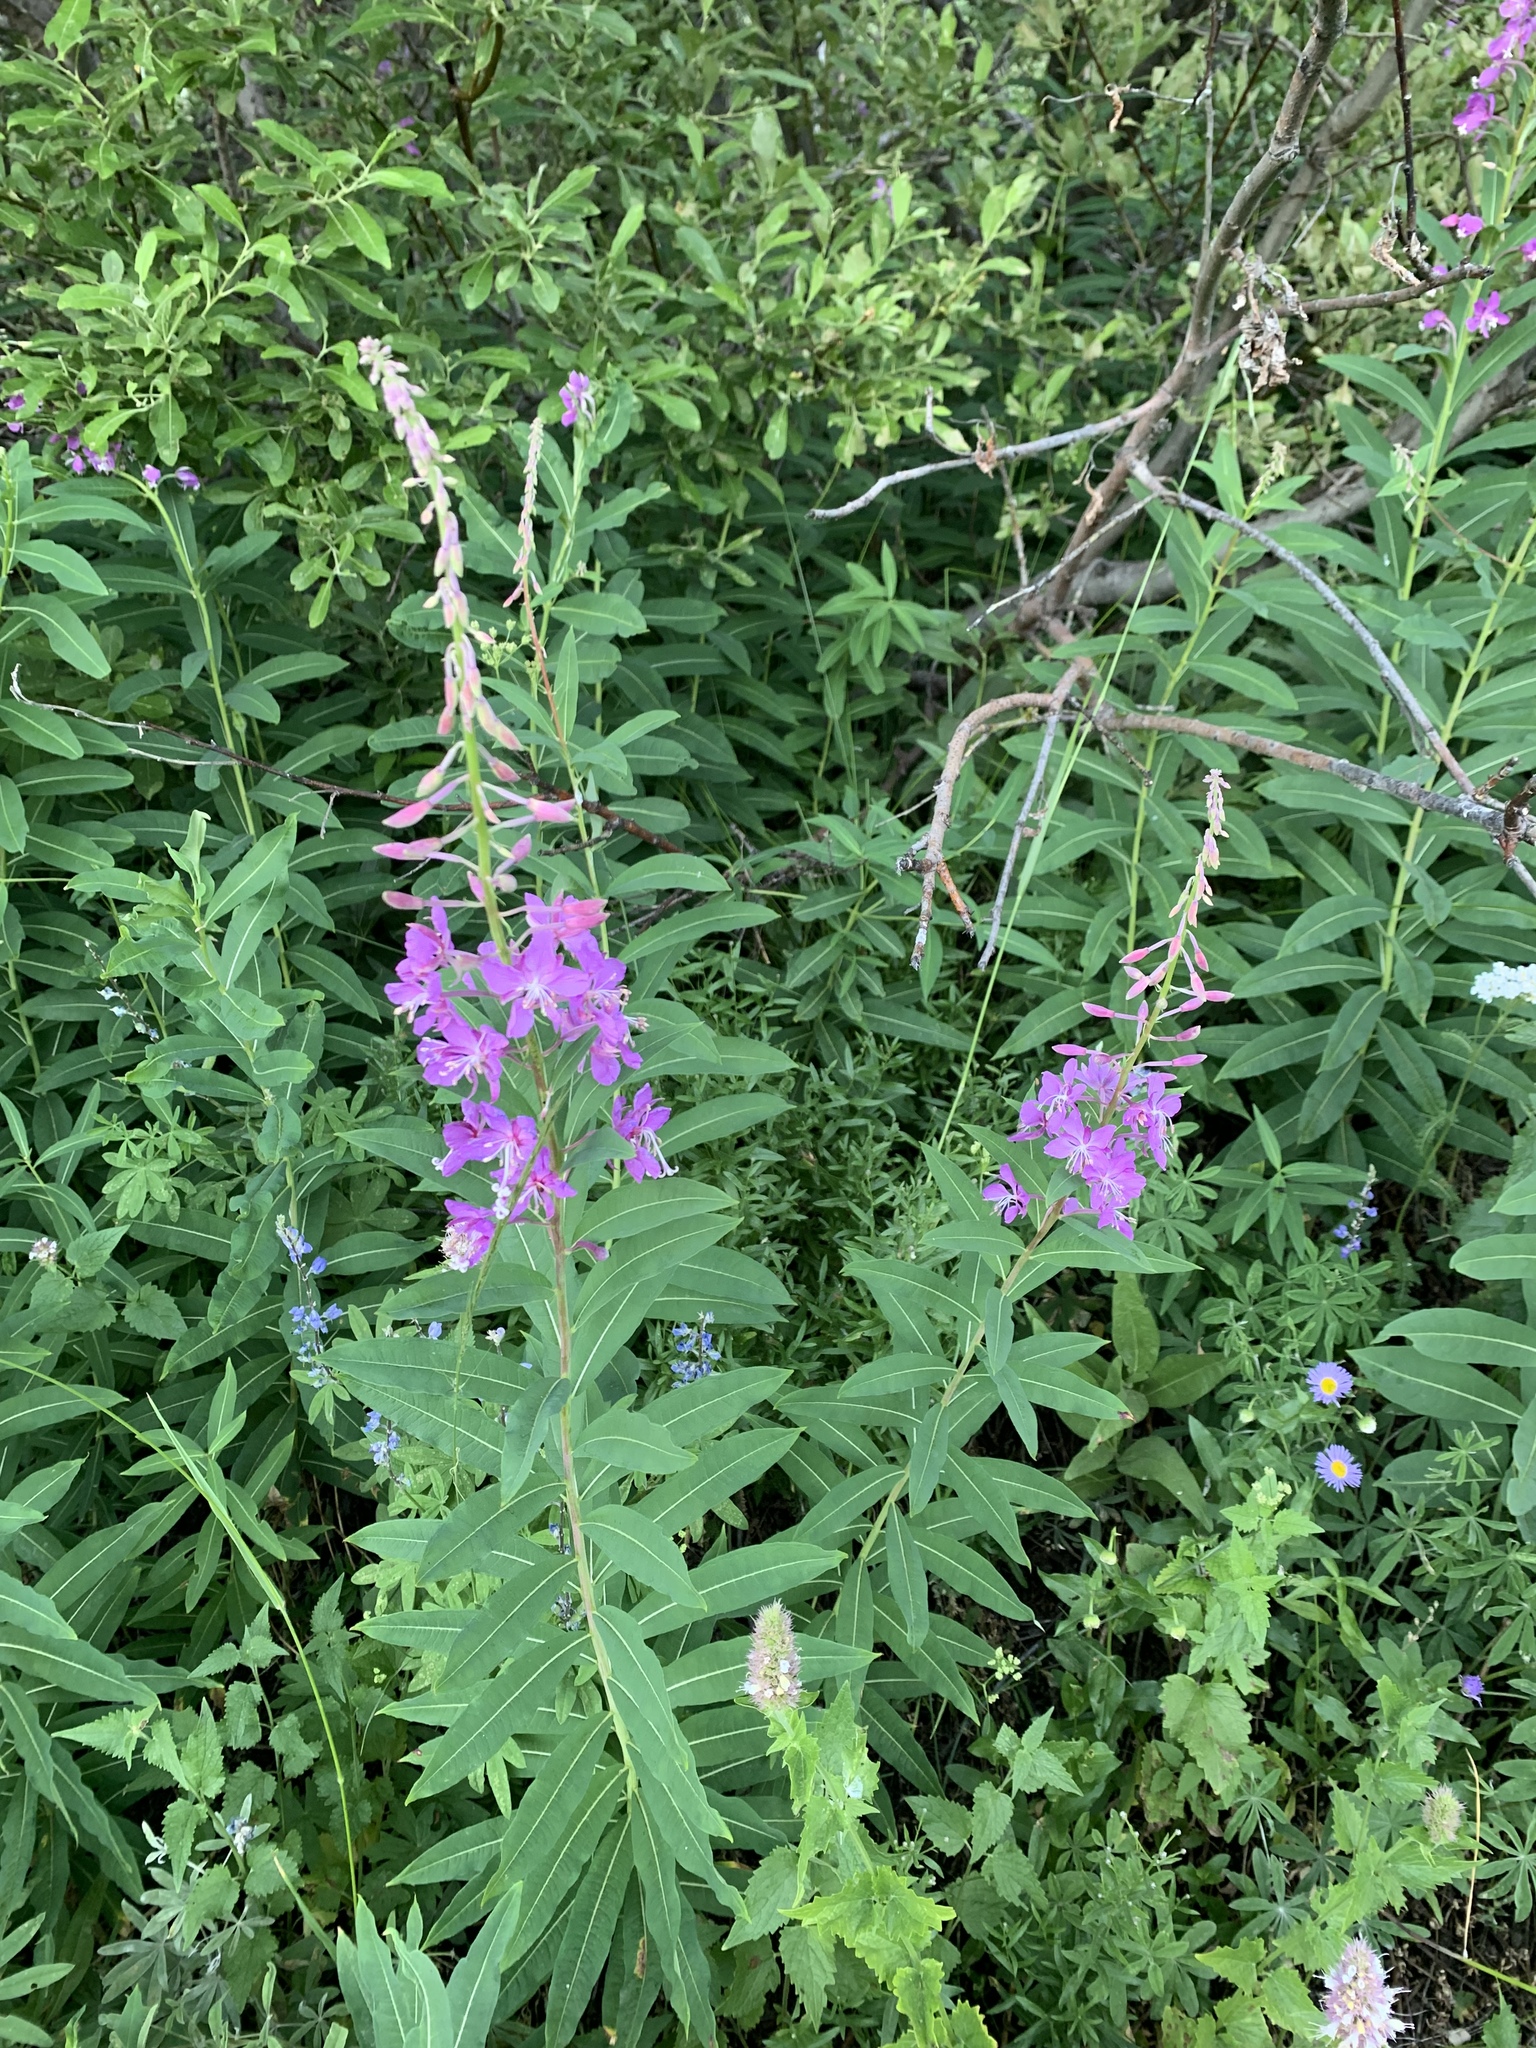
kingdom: Plantae
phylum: Tracheophyta
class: Magnoliopsida
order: Myrtales
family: Onagraceae
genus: Chamaenerion
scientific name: Chamaenerion angustifolium
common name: Fireweed
